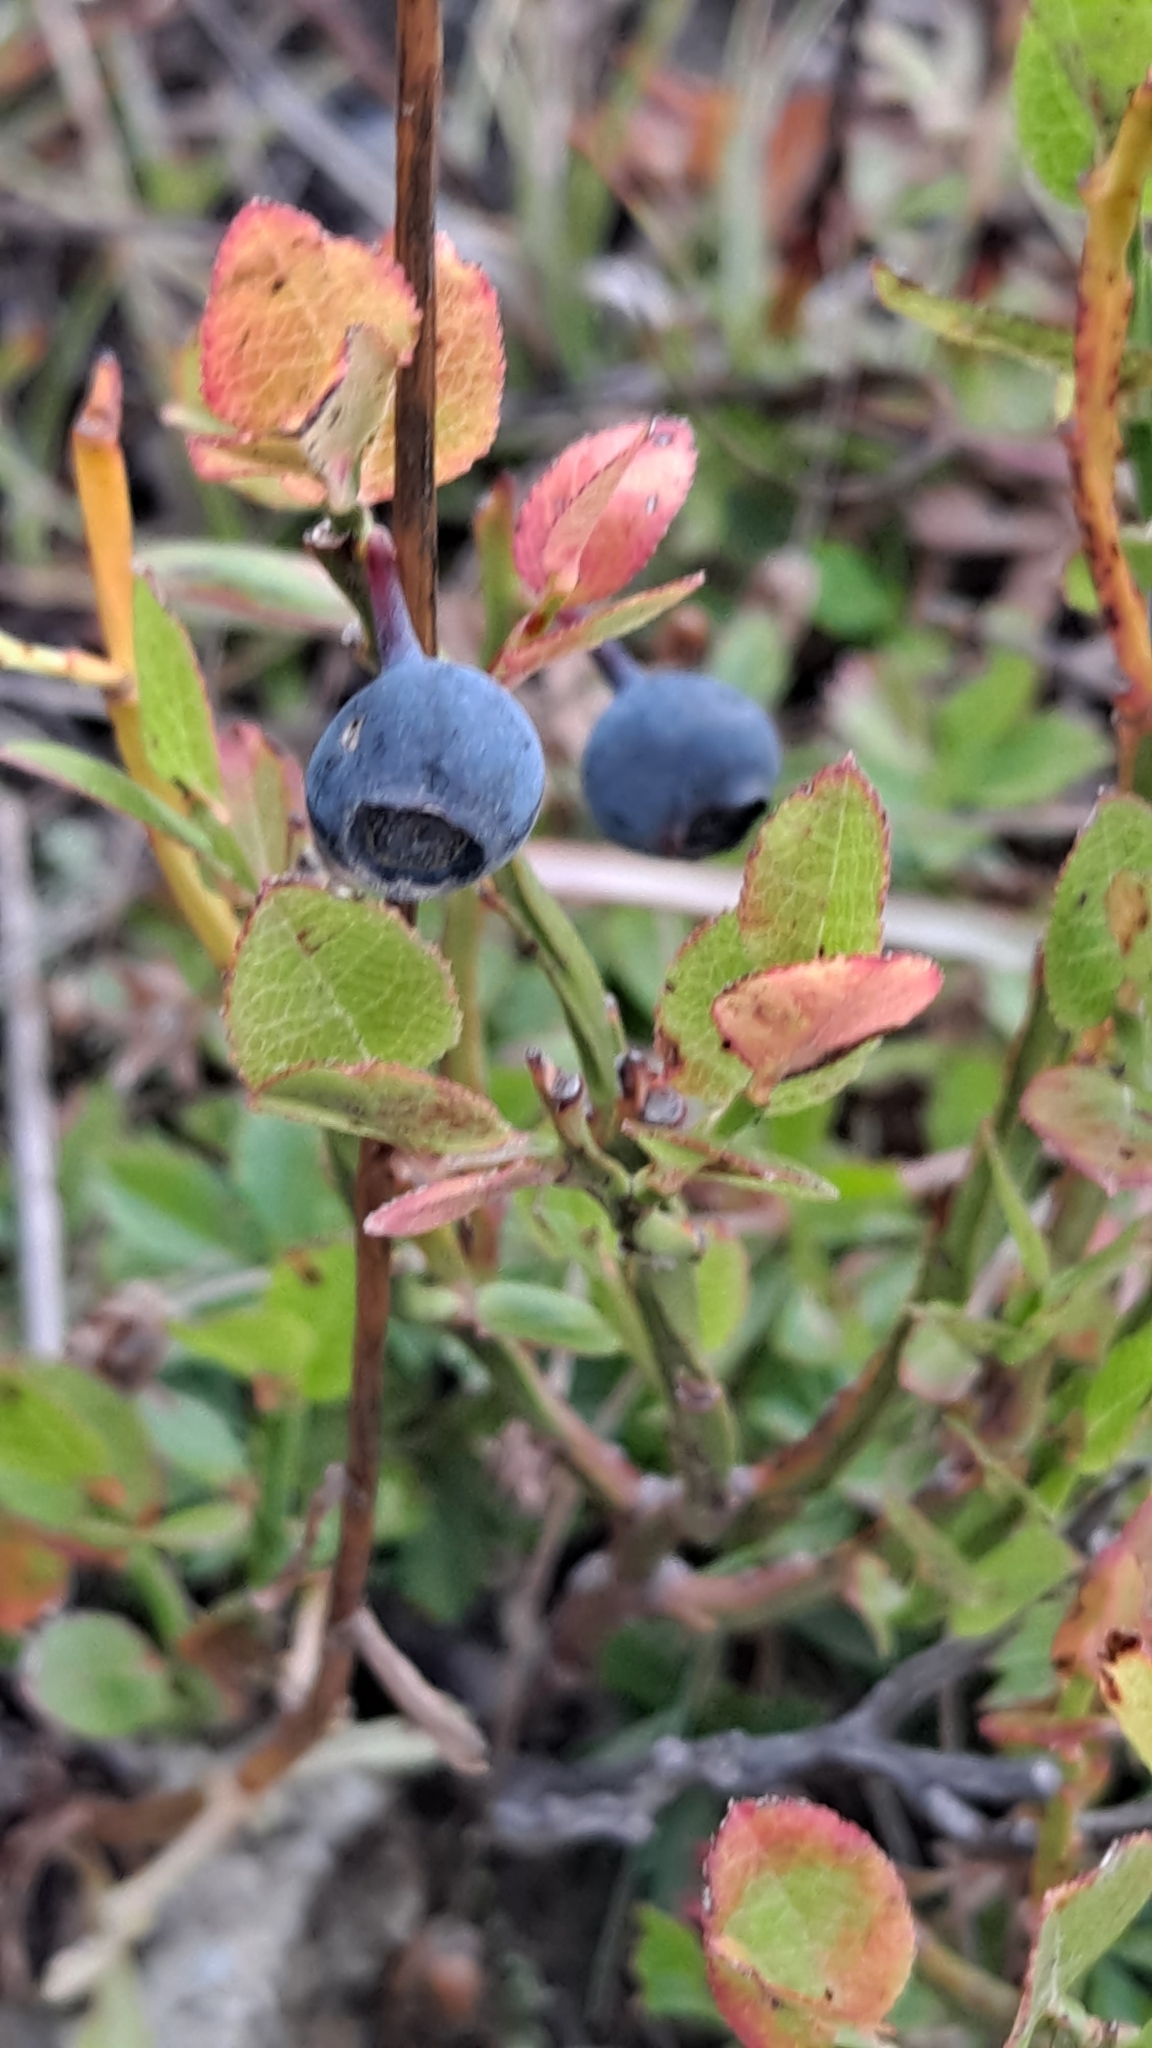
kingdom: Plantae
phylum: Tracheophyta
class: Magnoliopsida
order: Ericales
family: Ericaceae
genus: Vaccinium
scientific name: Vaccinium uliginosum
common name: Bog bilberry
